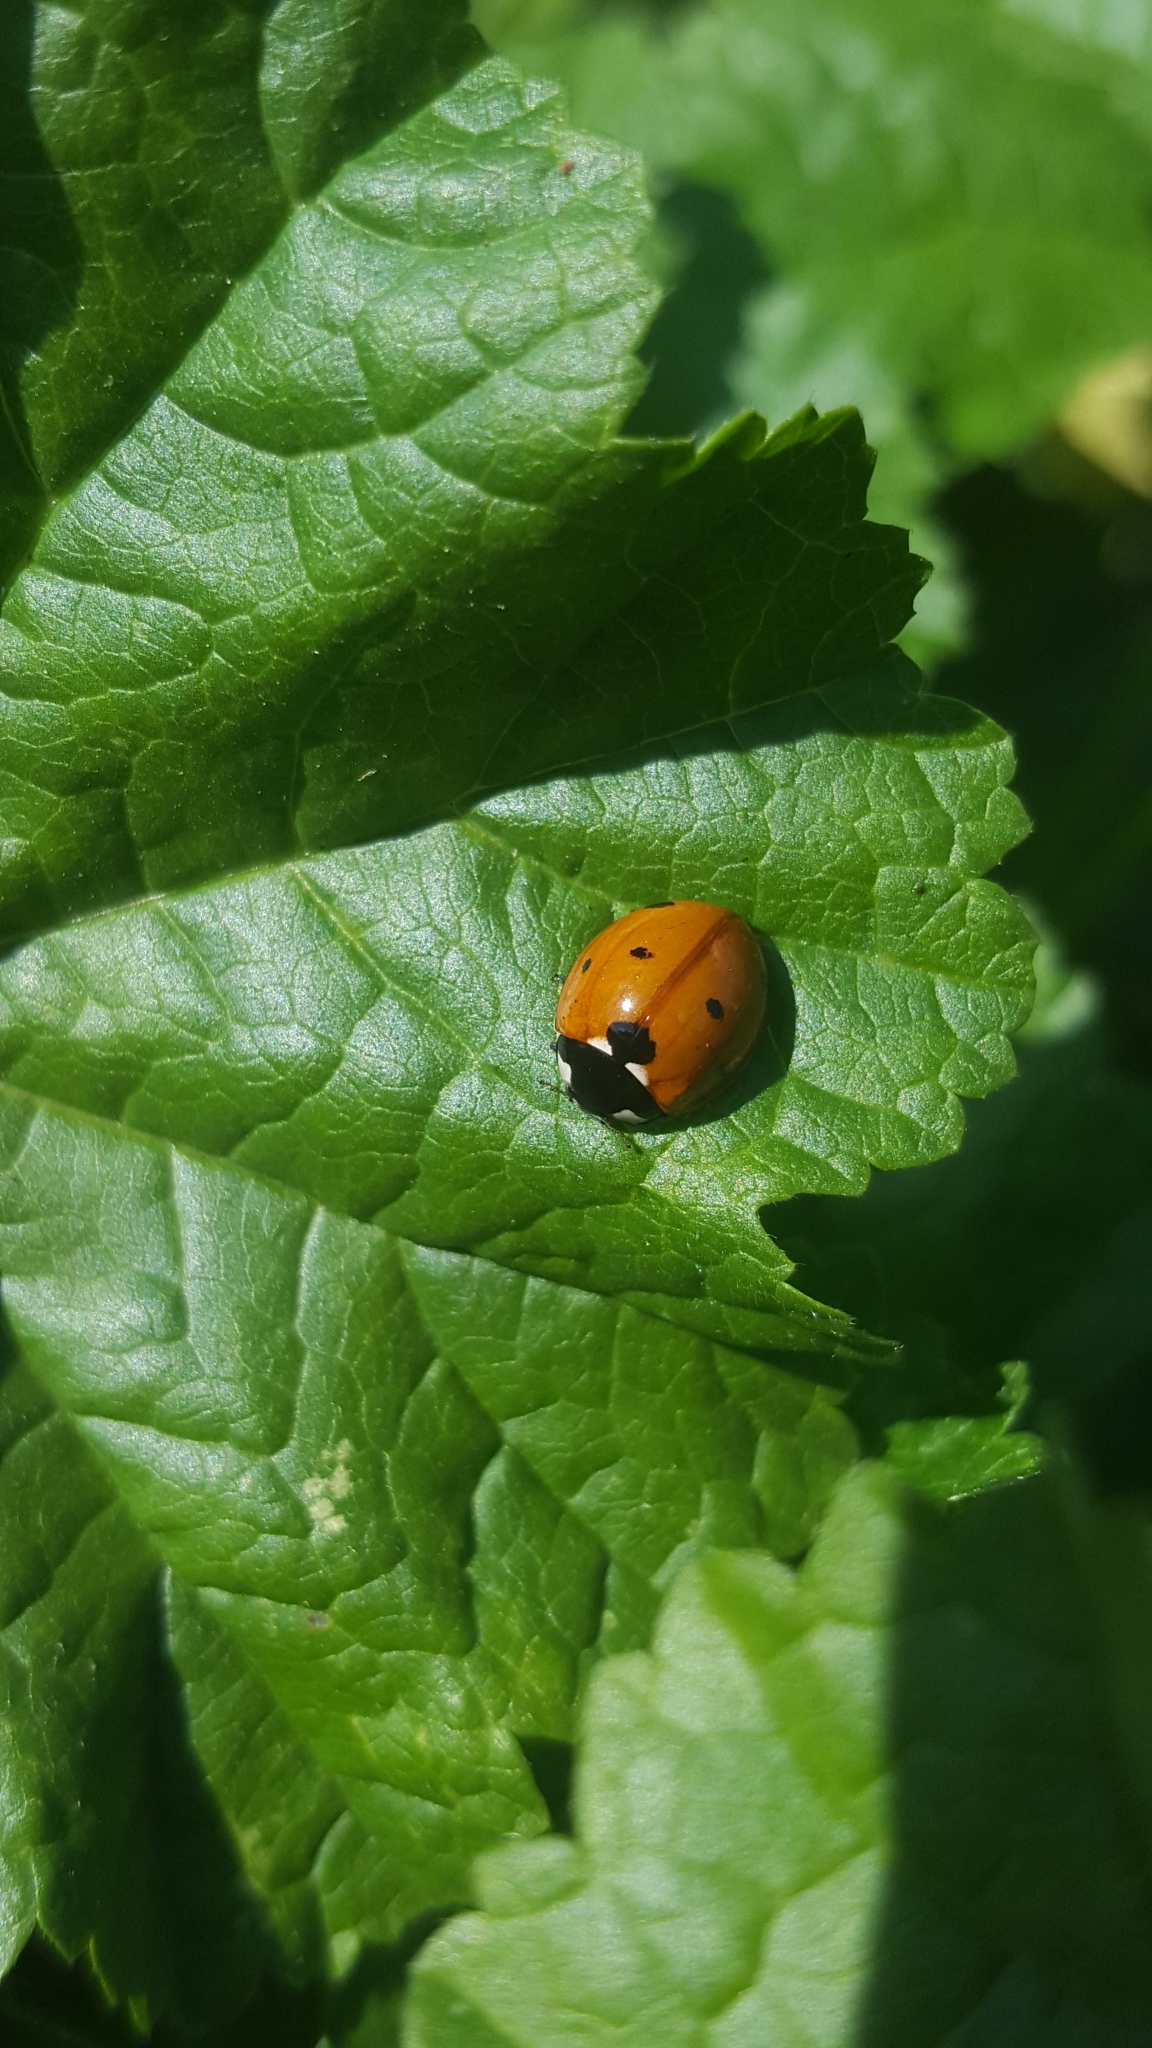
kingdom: Animalia
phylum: Arthropoda
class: Insecta
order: Coleoptera
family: Coccinellidae
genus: Coccinella
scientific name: Coccinella septempunctata
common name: Sevenspotted lady beetle
